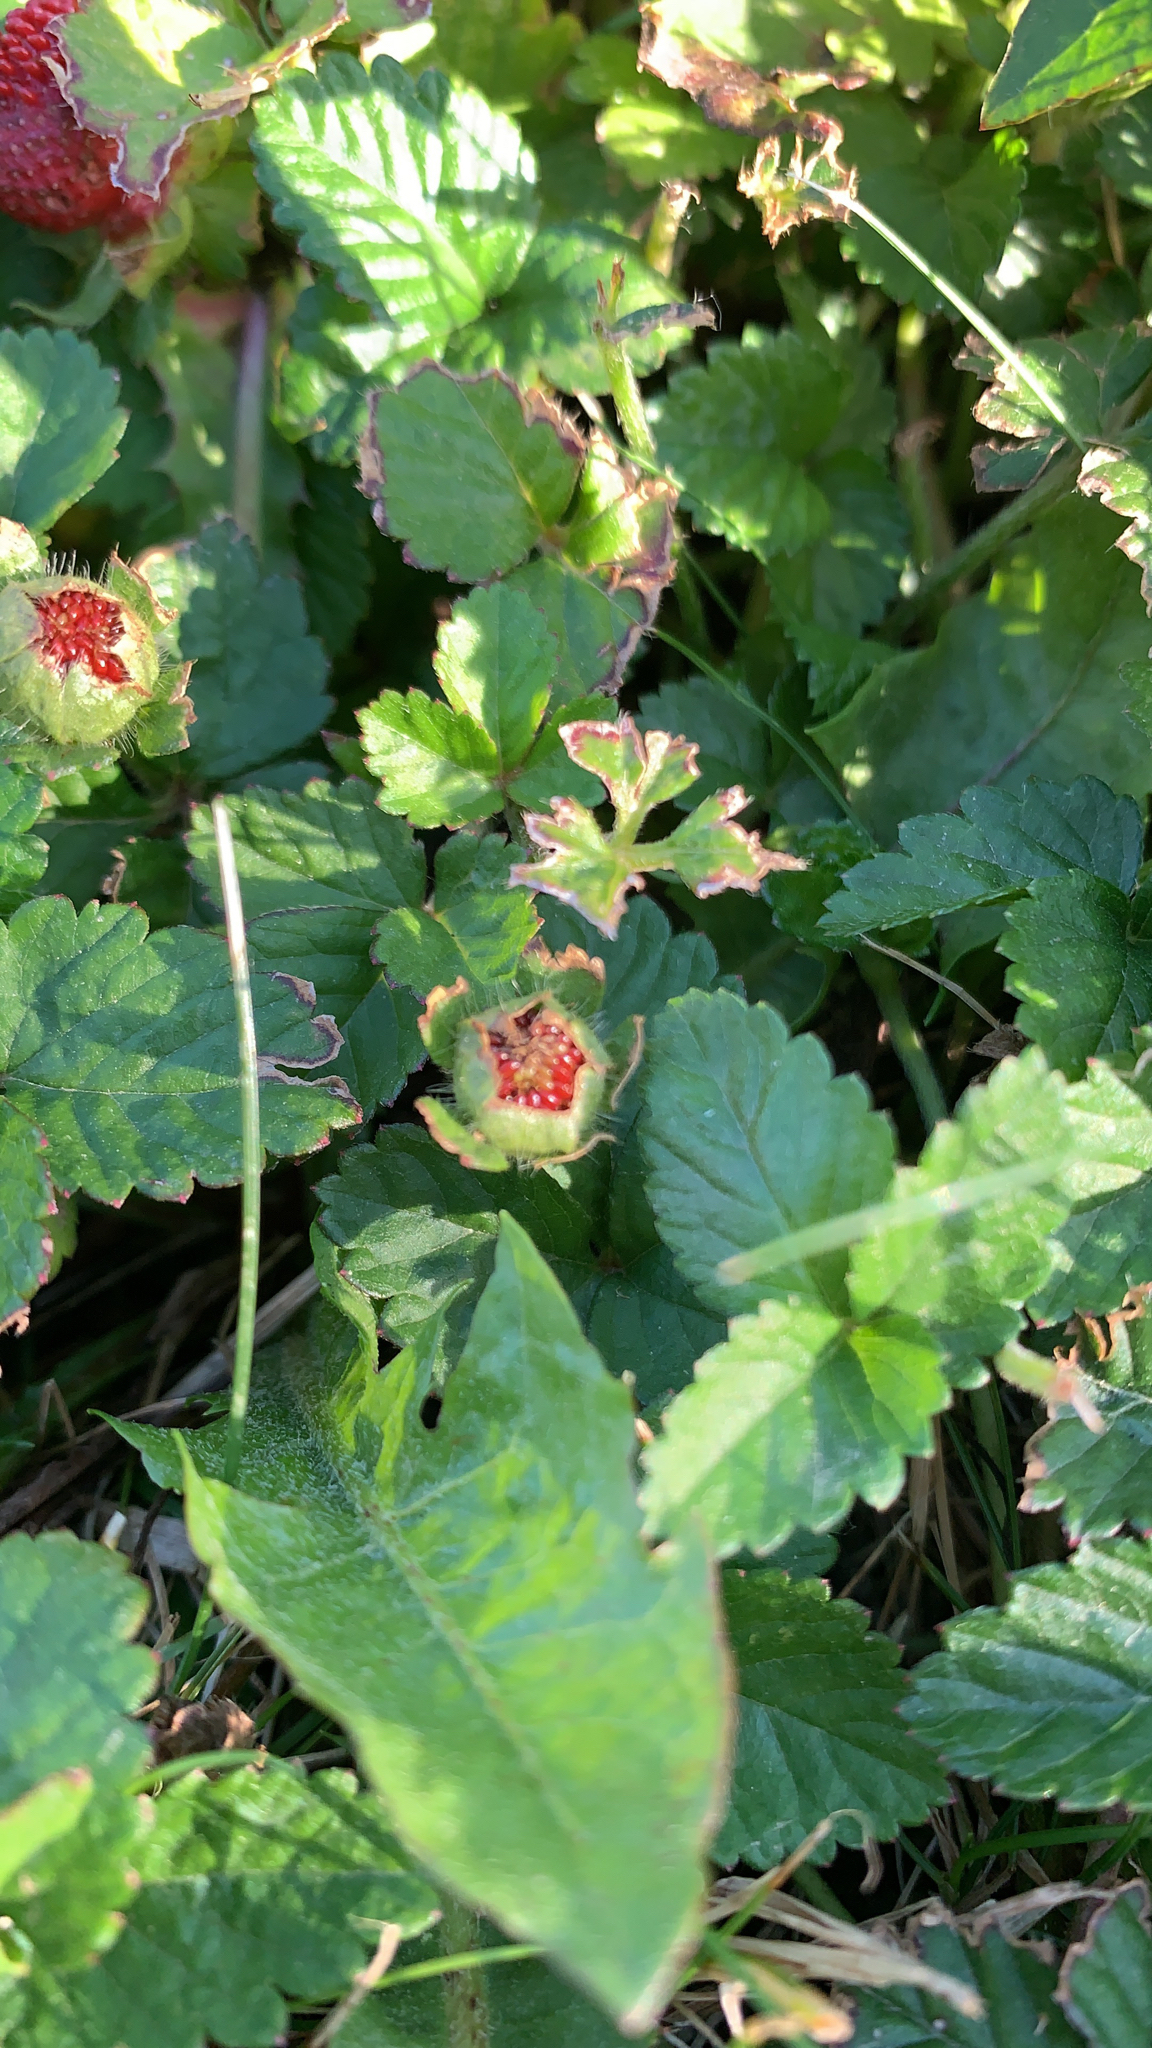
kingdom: Plantae
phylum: Tracheophyta
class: Magnoliopsida
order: Rosales
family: Rosaceae
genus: Potentilla
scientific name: Potentilla indica
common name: Yellow-flowered strawberry
